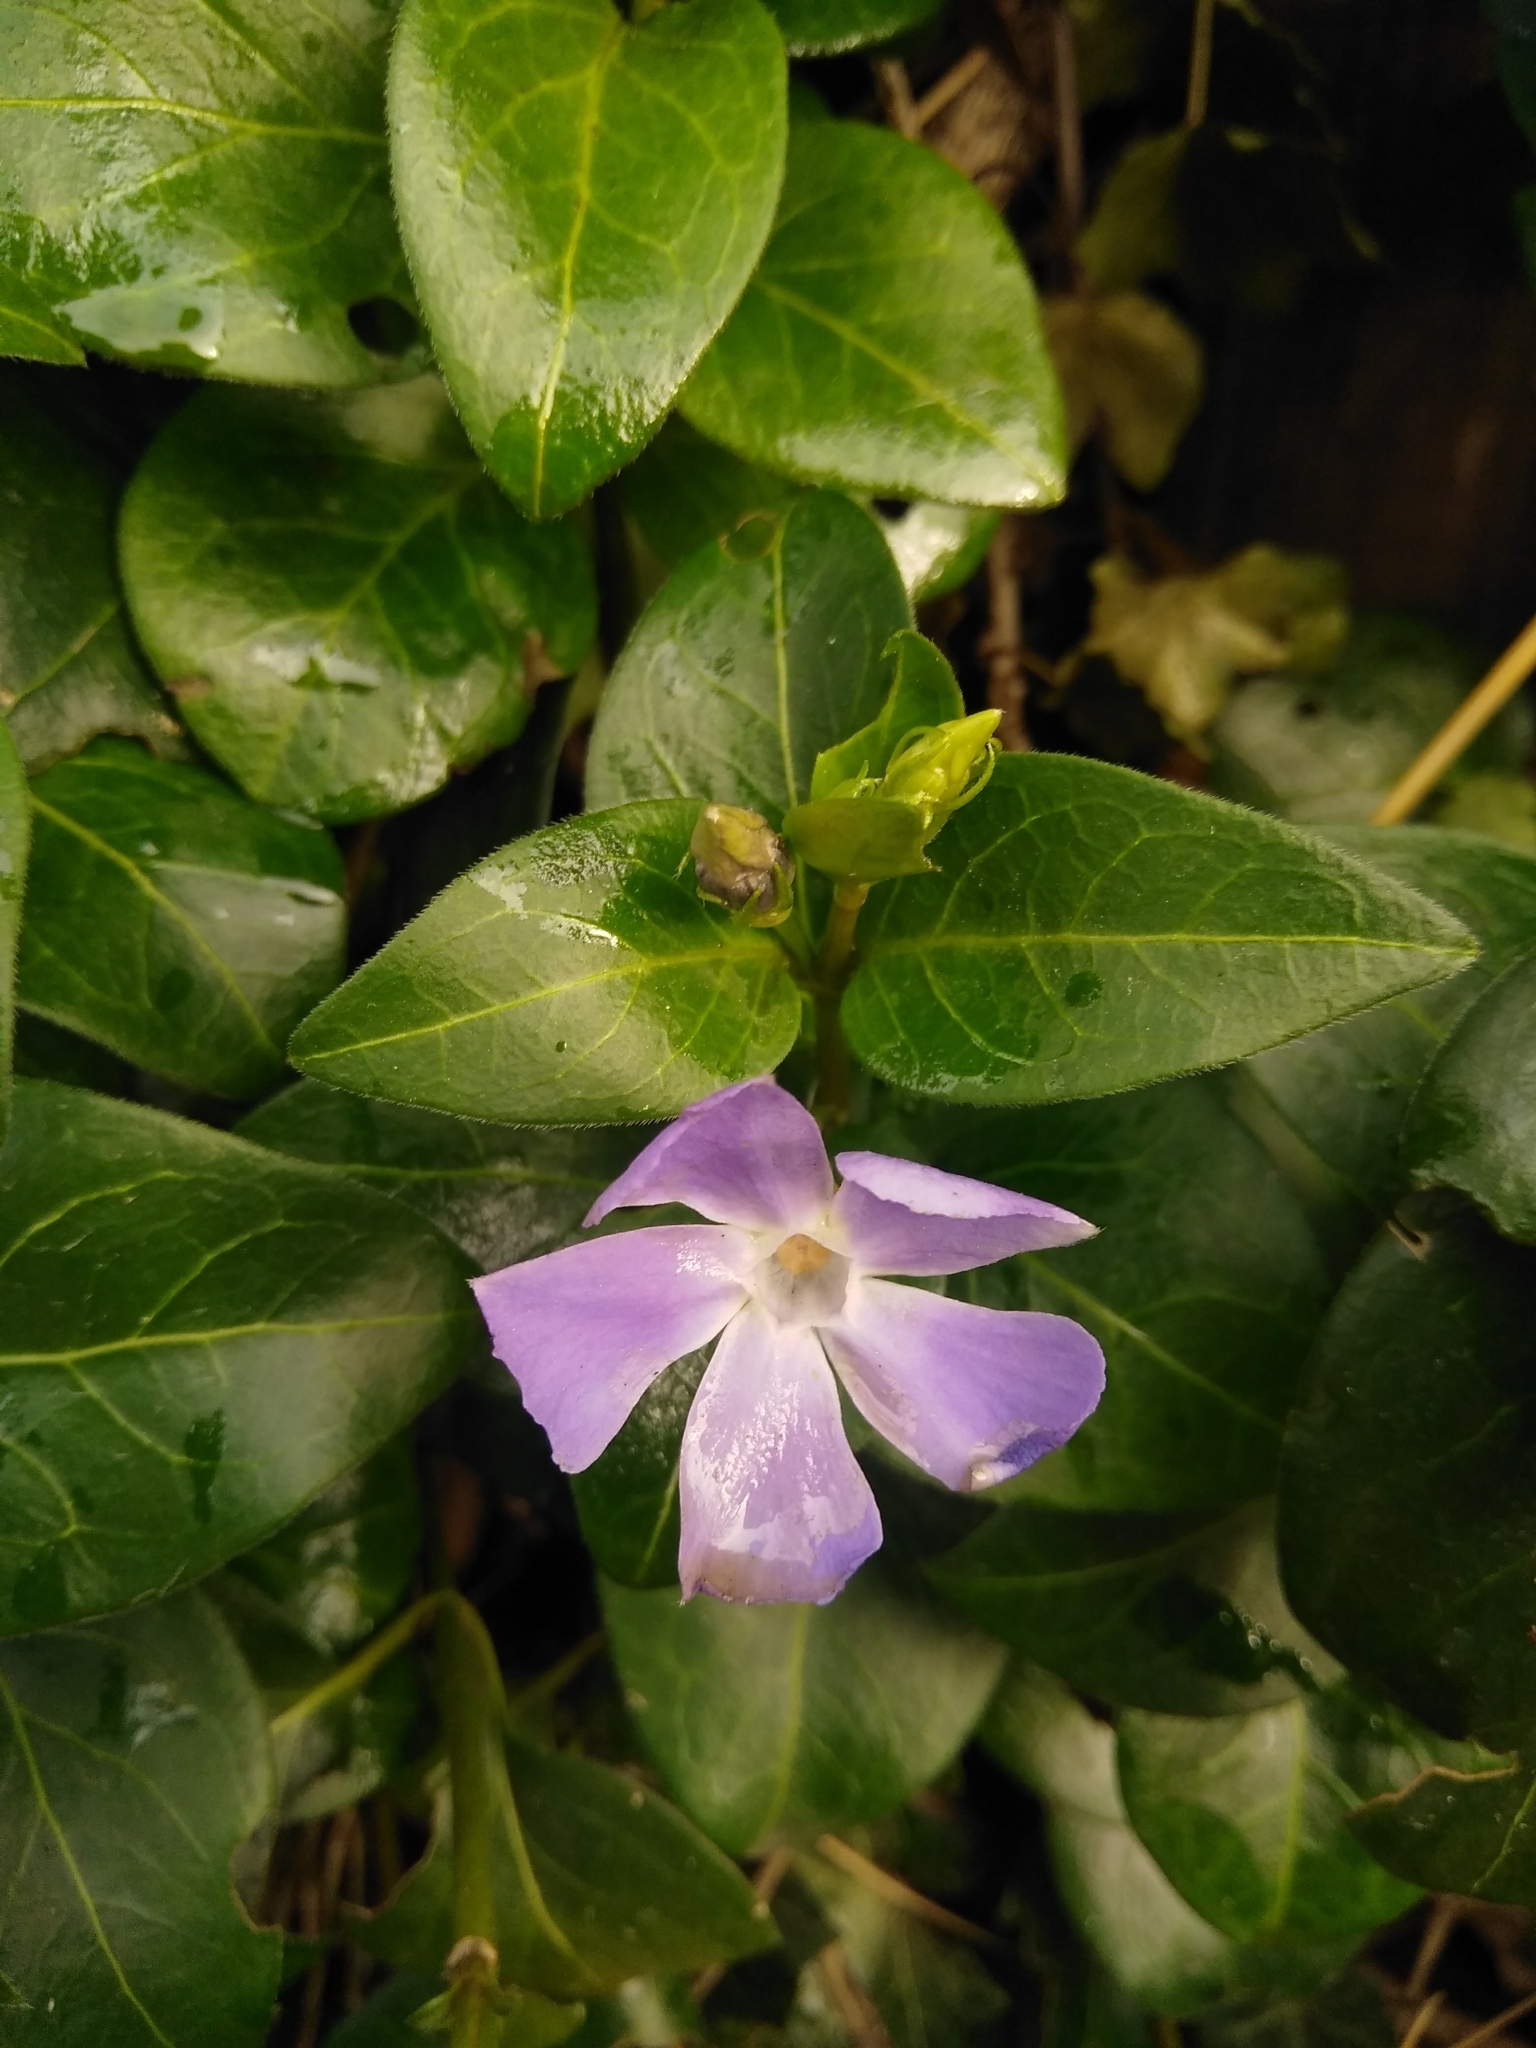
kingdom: Plantae
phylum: Tracheophyta
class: Magnoliopsida
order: Gentianales
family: Apocynaceae
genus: Vinca
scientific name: Vinca major
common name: Greater periwinkle
